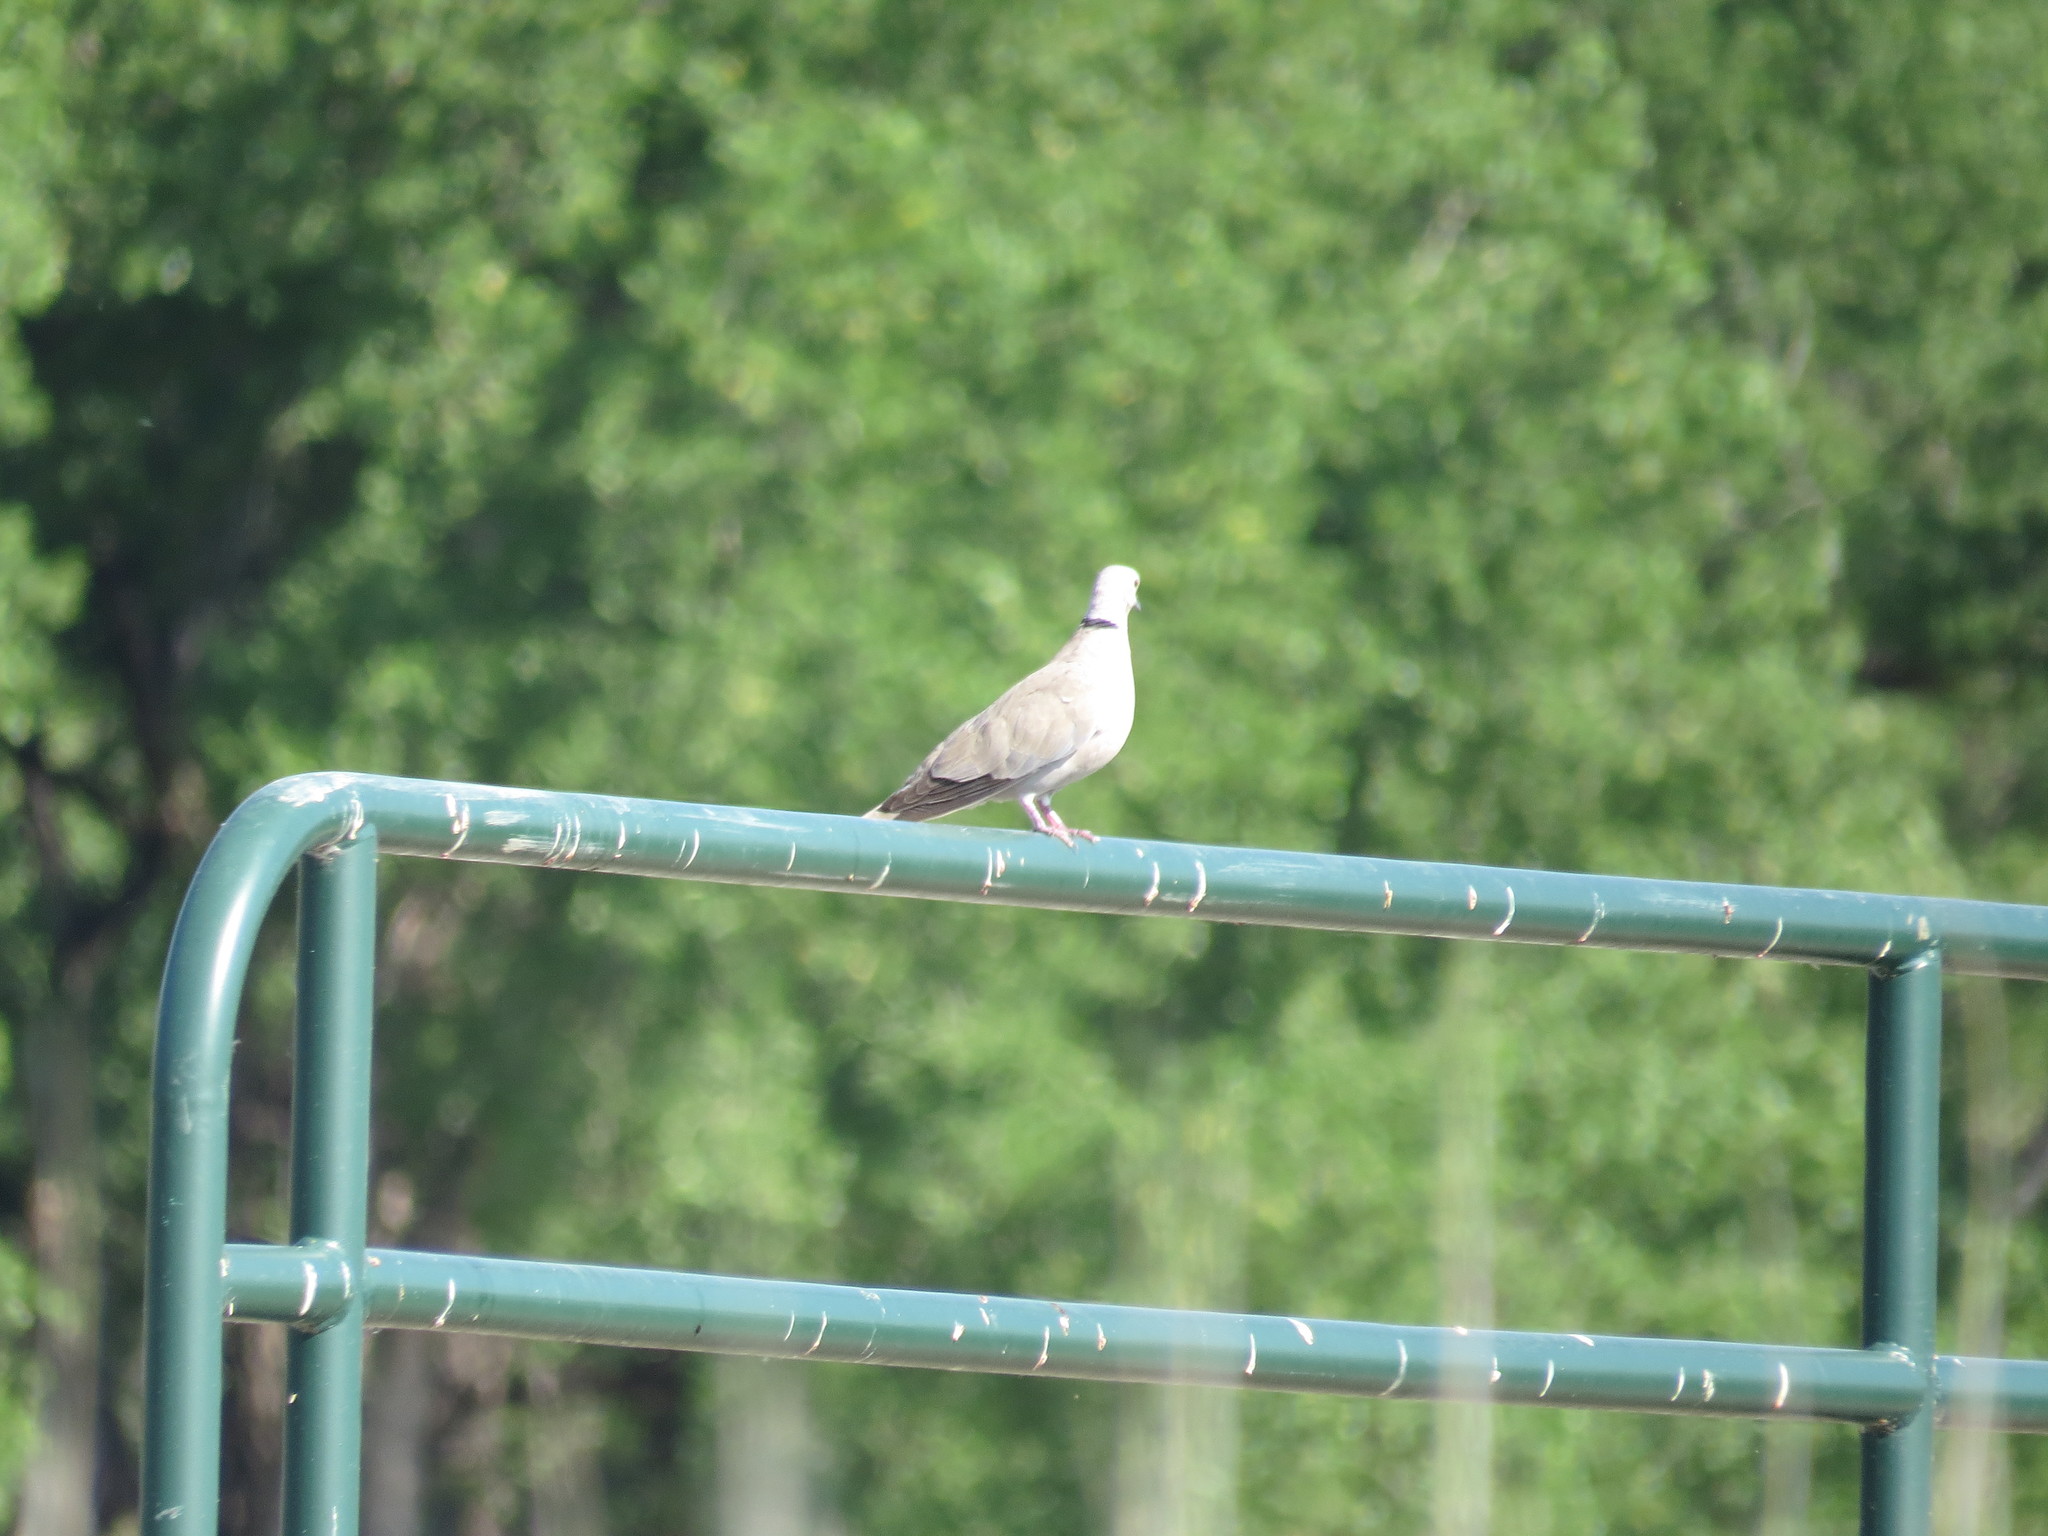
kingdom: Animalia
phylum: Chordata
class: Aves
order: Columbiformes
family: Columbidae
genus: Streptopelia
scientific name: Streptopelia decaocto
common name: Eurasian collared dove
